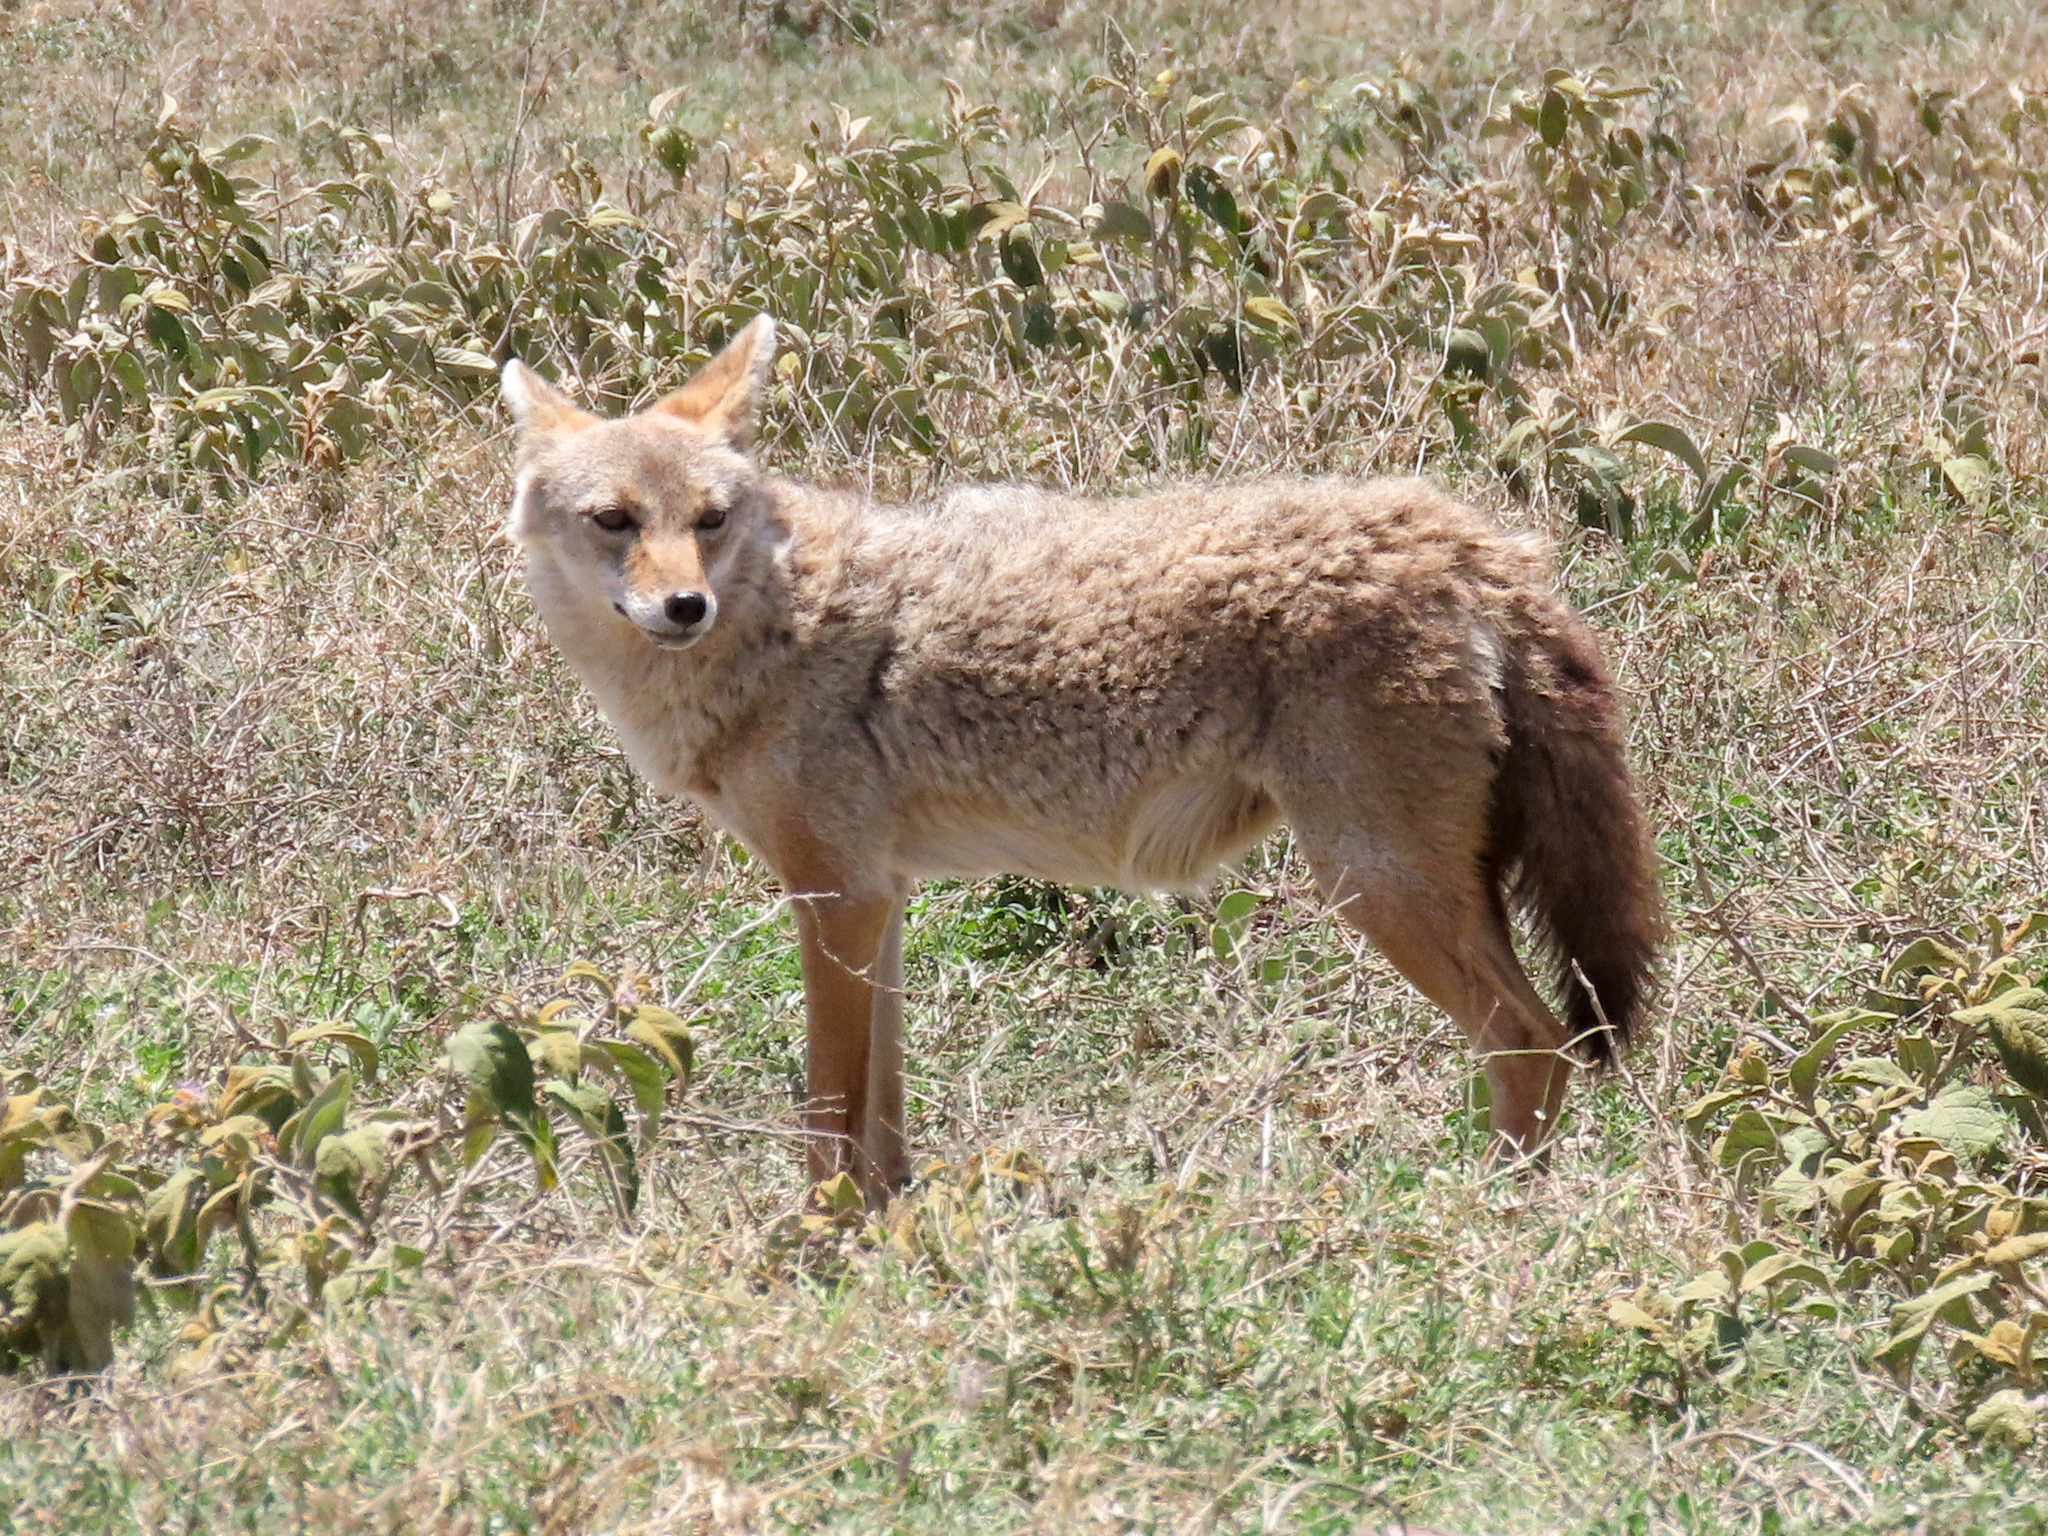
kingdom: Animalia
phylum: Chordata
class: Mammalia
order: Carnivora
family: Canidae
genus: Canis
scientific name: Canis lupaster
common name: African golden wolf
